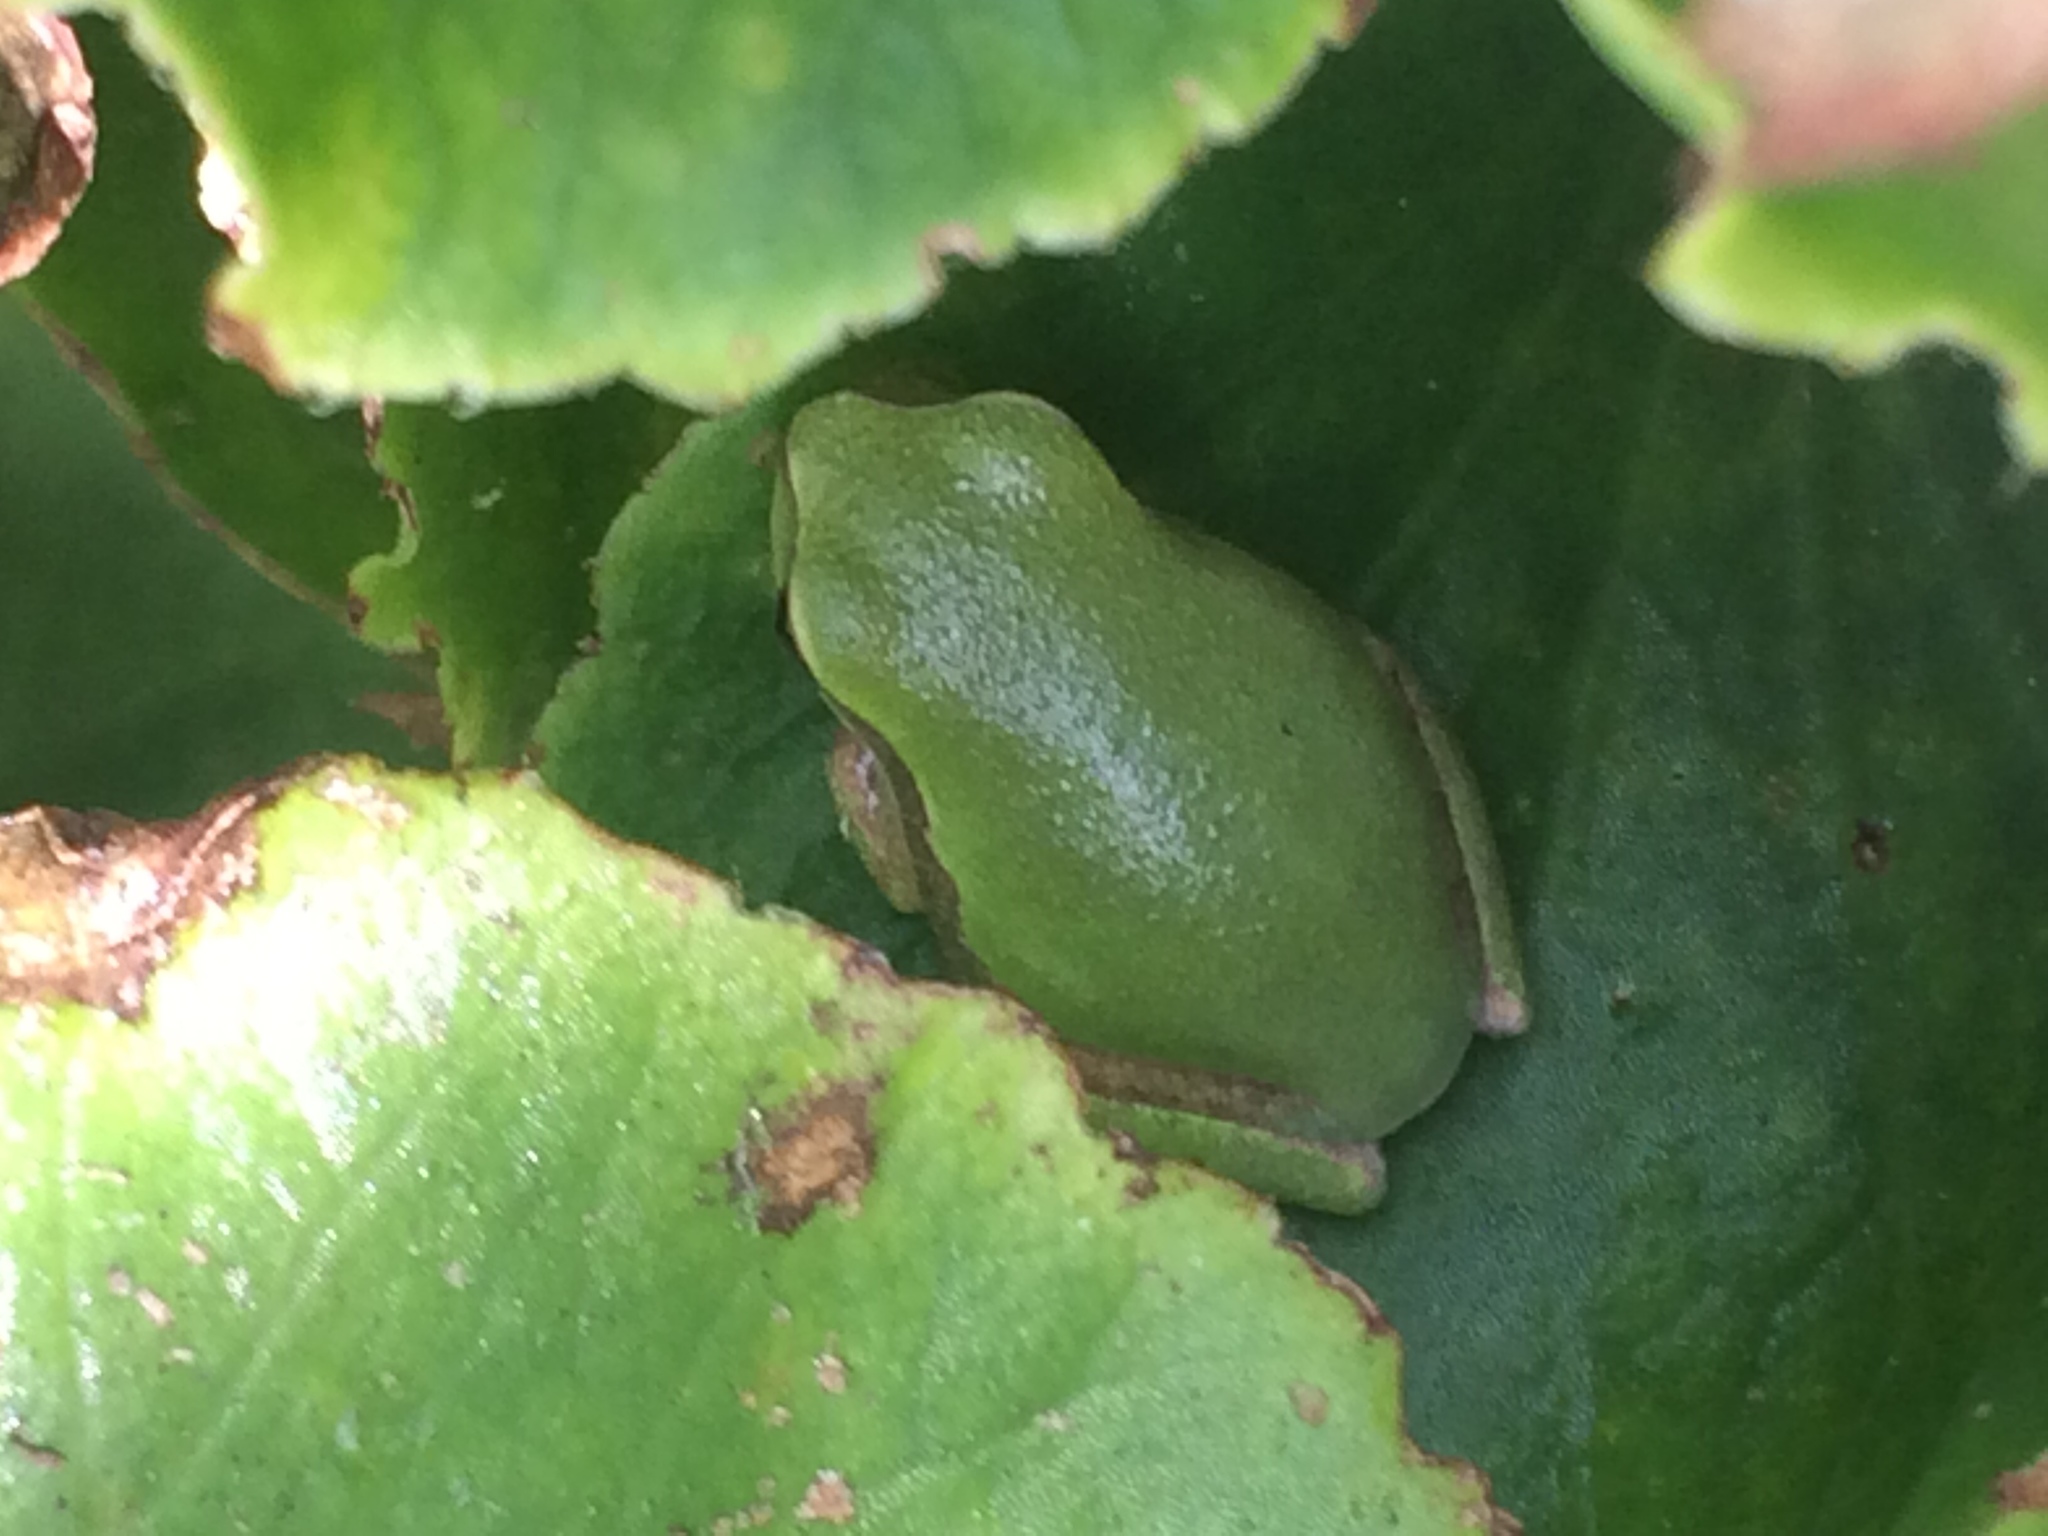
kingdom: Animalia
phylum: Chordata
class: Amphibia
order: Anura
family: Hylidae
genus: Hyla
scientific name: Hyla femoralis
